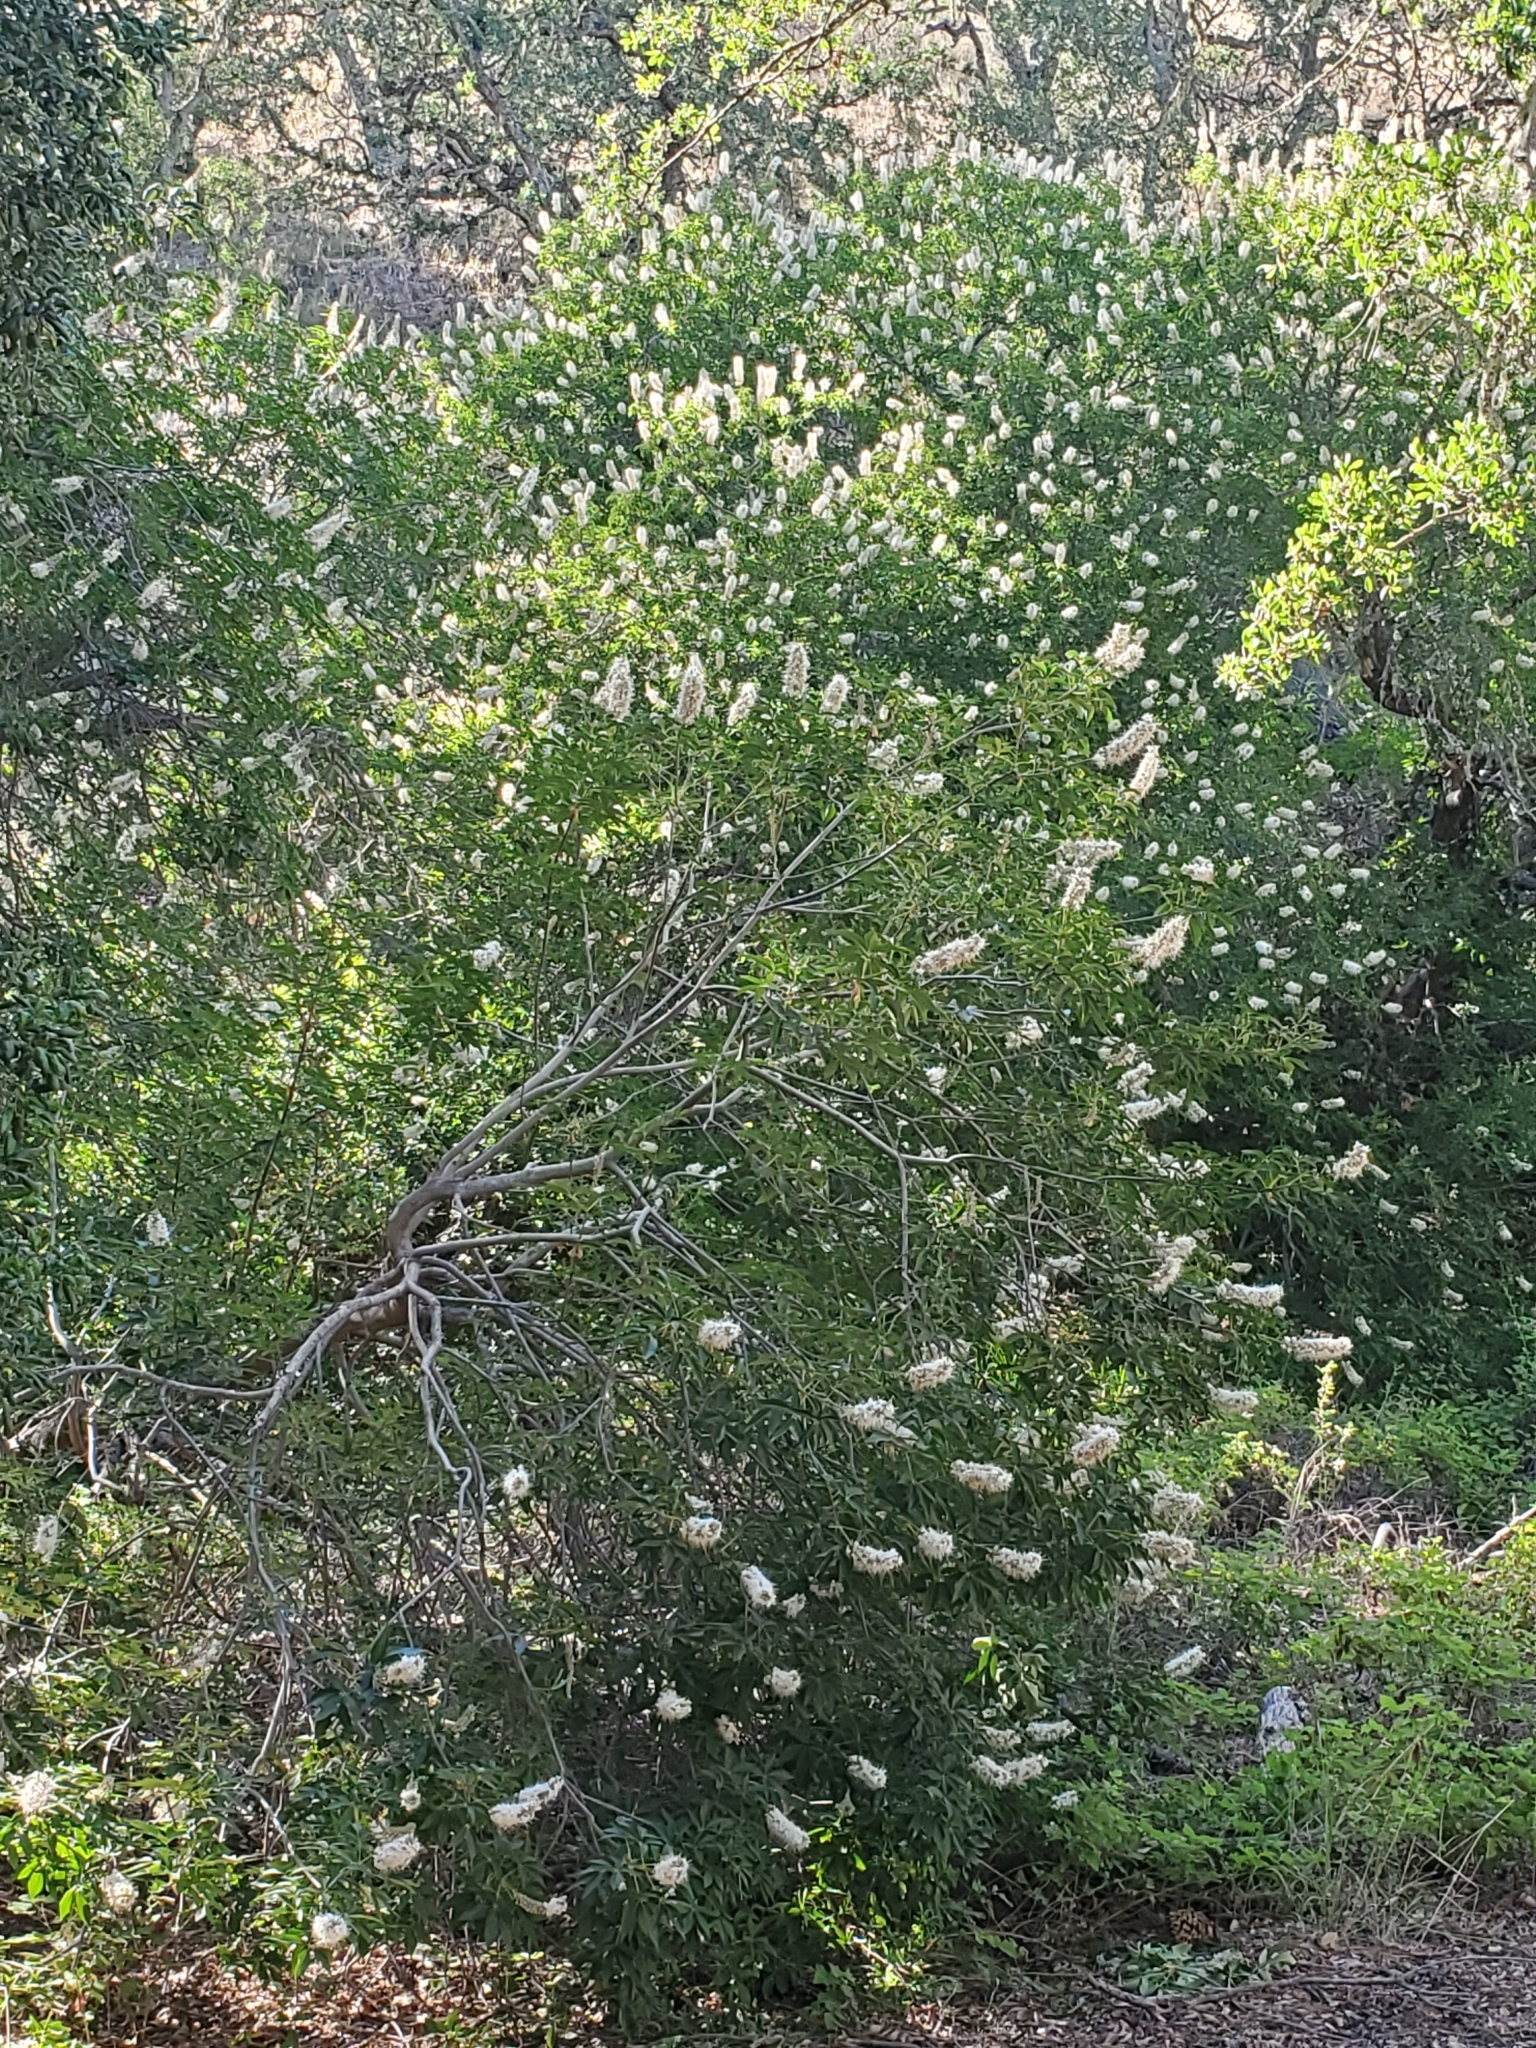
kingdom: Plantae
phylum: Tracheophyta
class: Magnoliopsida
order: Sapindales
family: Sapindaceae
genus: Aesculus
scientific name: Aesculus californica
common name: California buckeye
